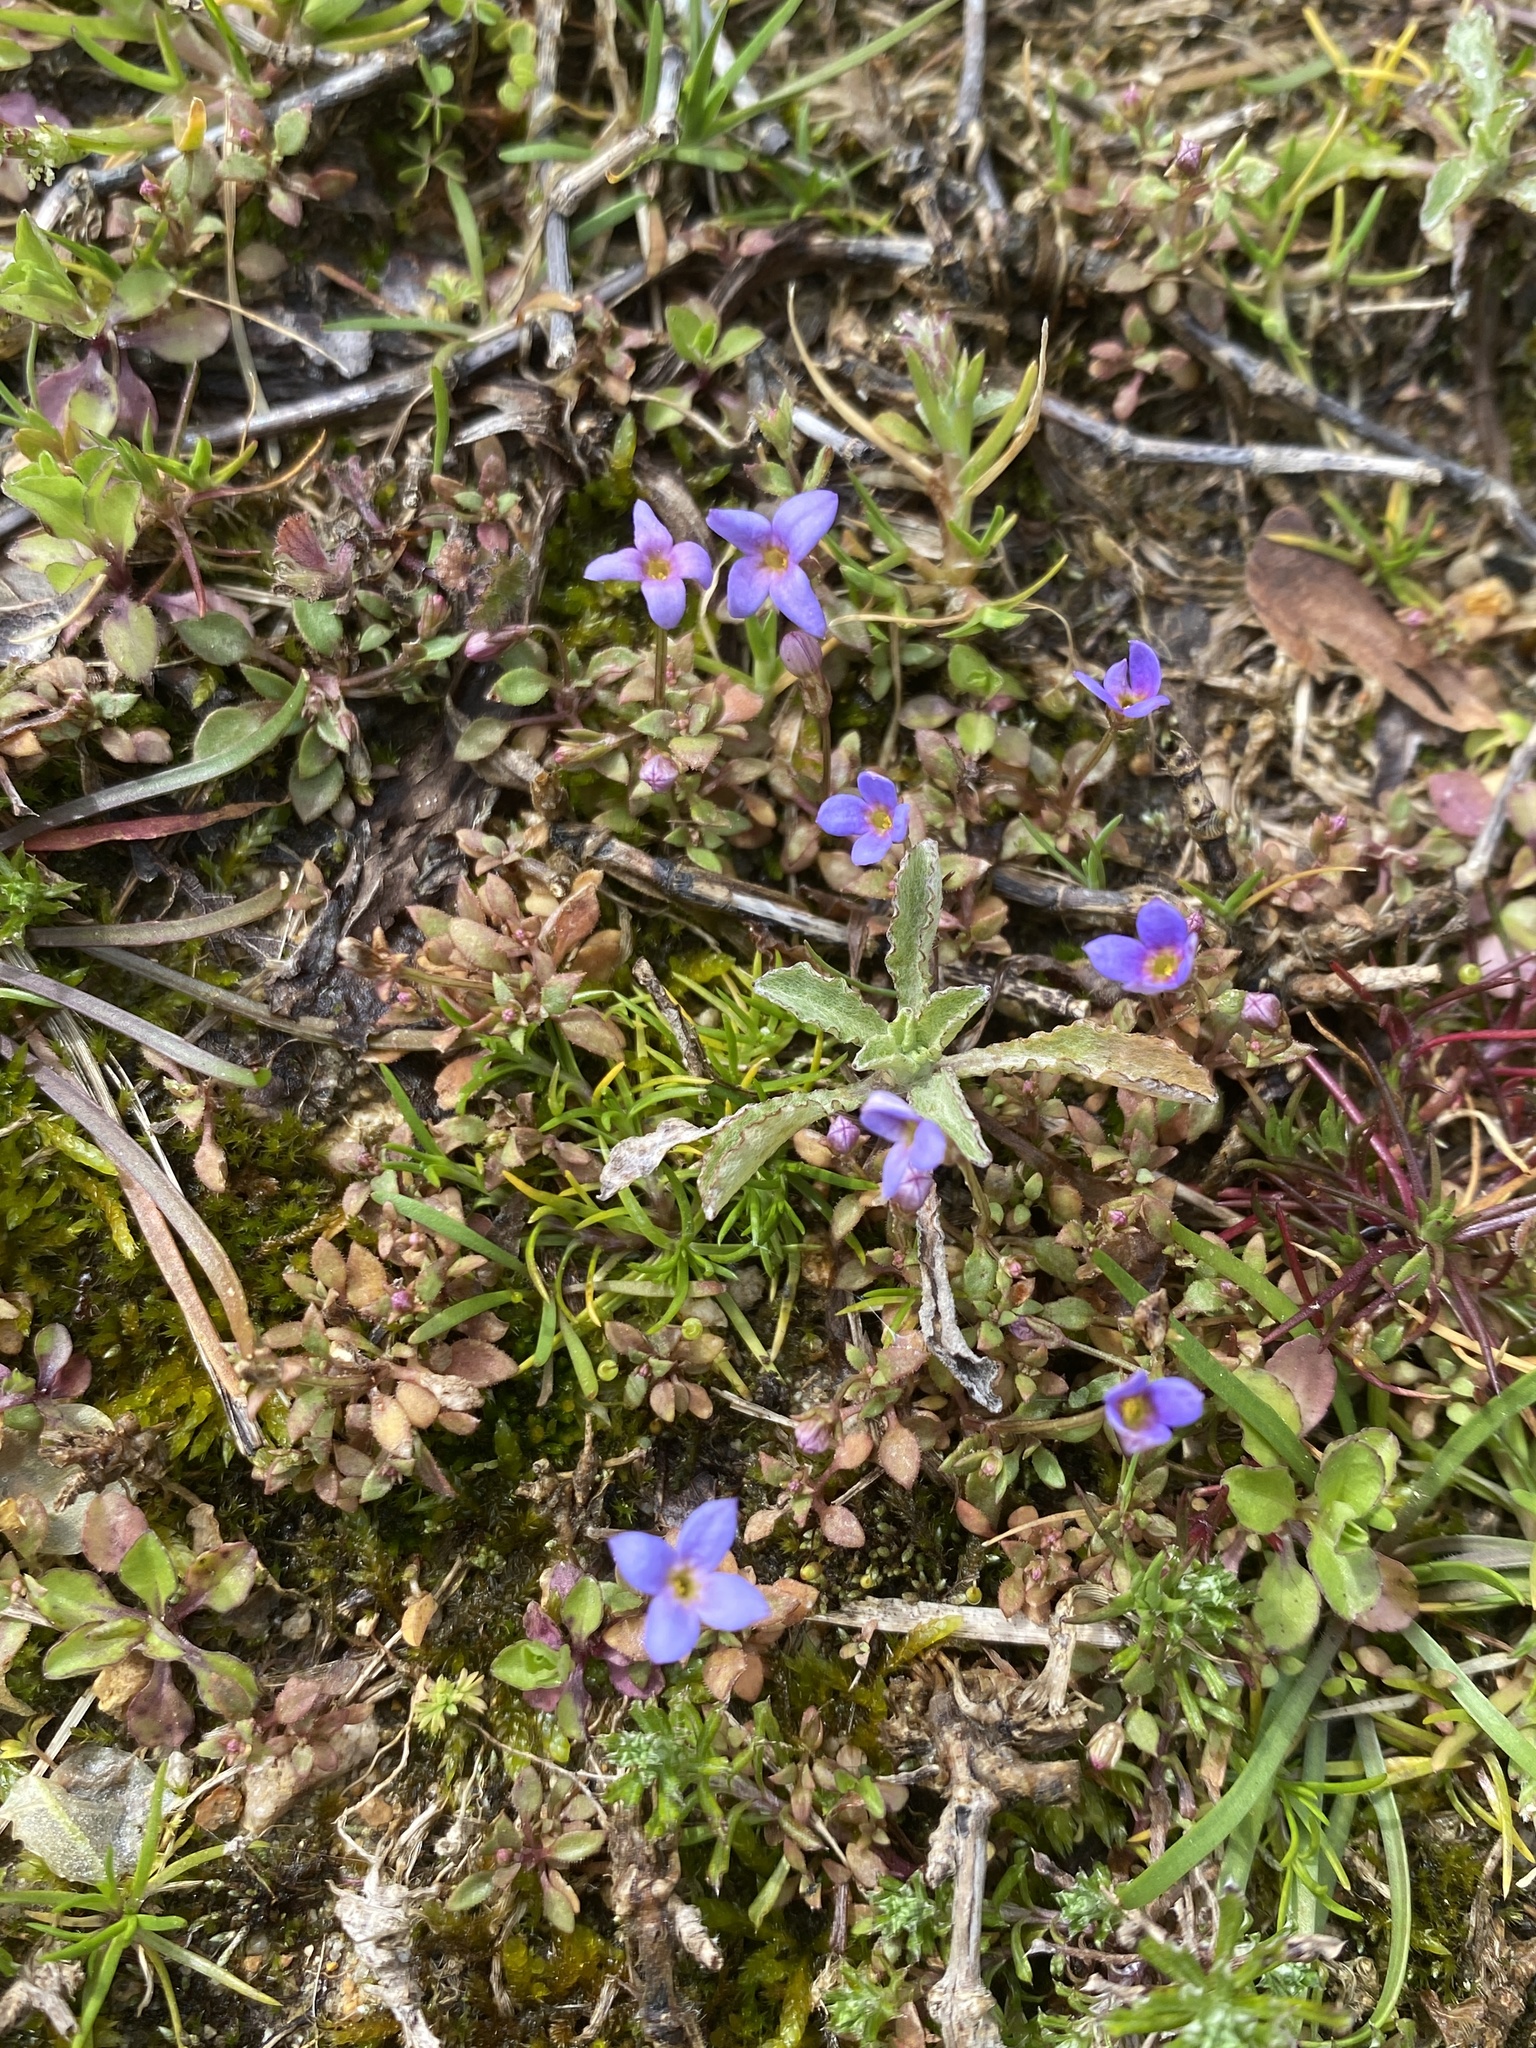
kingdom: Plantae
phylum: Tracheophyta
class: Magnoliopsida
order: Gentianales
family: Rubiaceae
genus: Houstonia
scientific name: Houstonia pusilla
